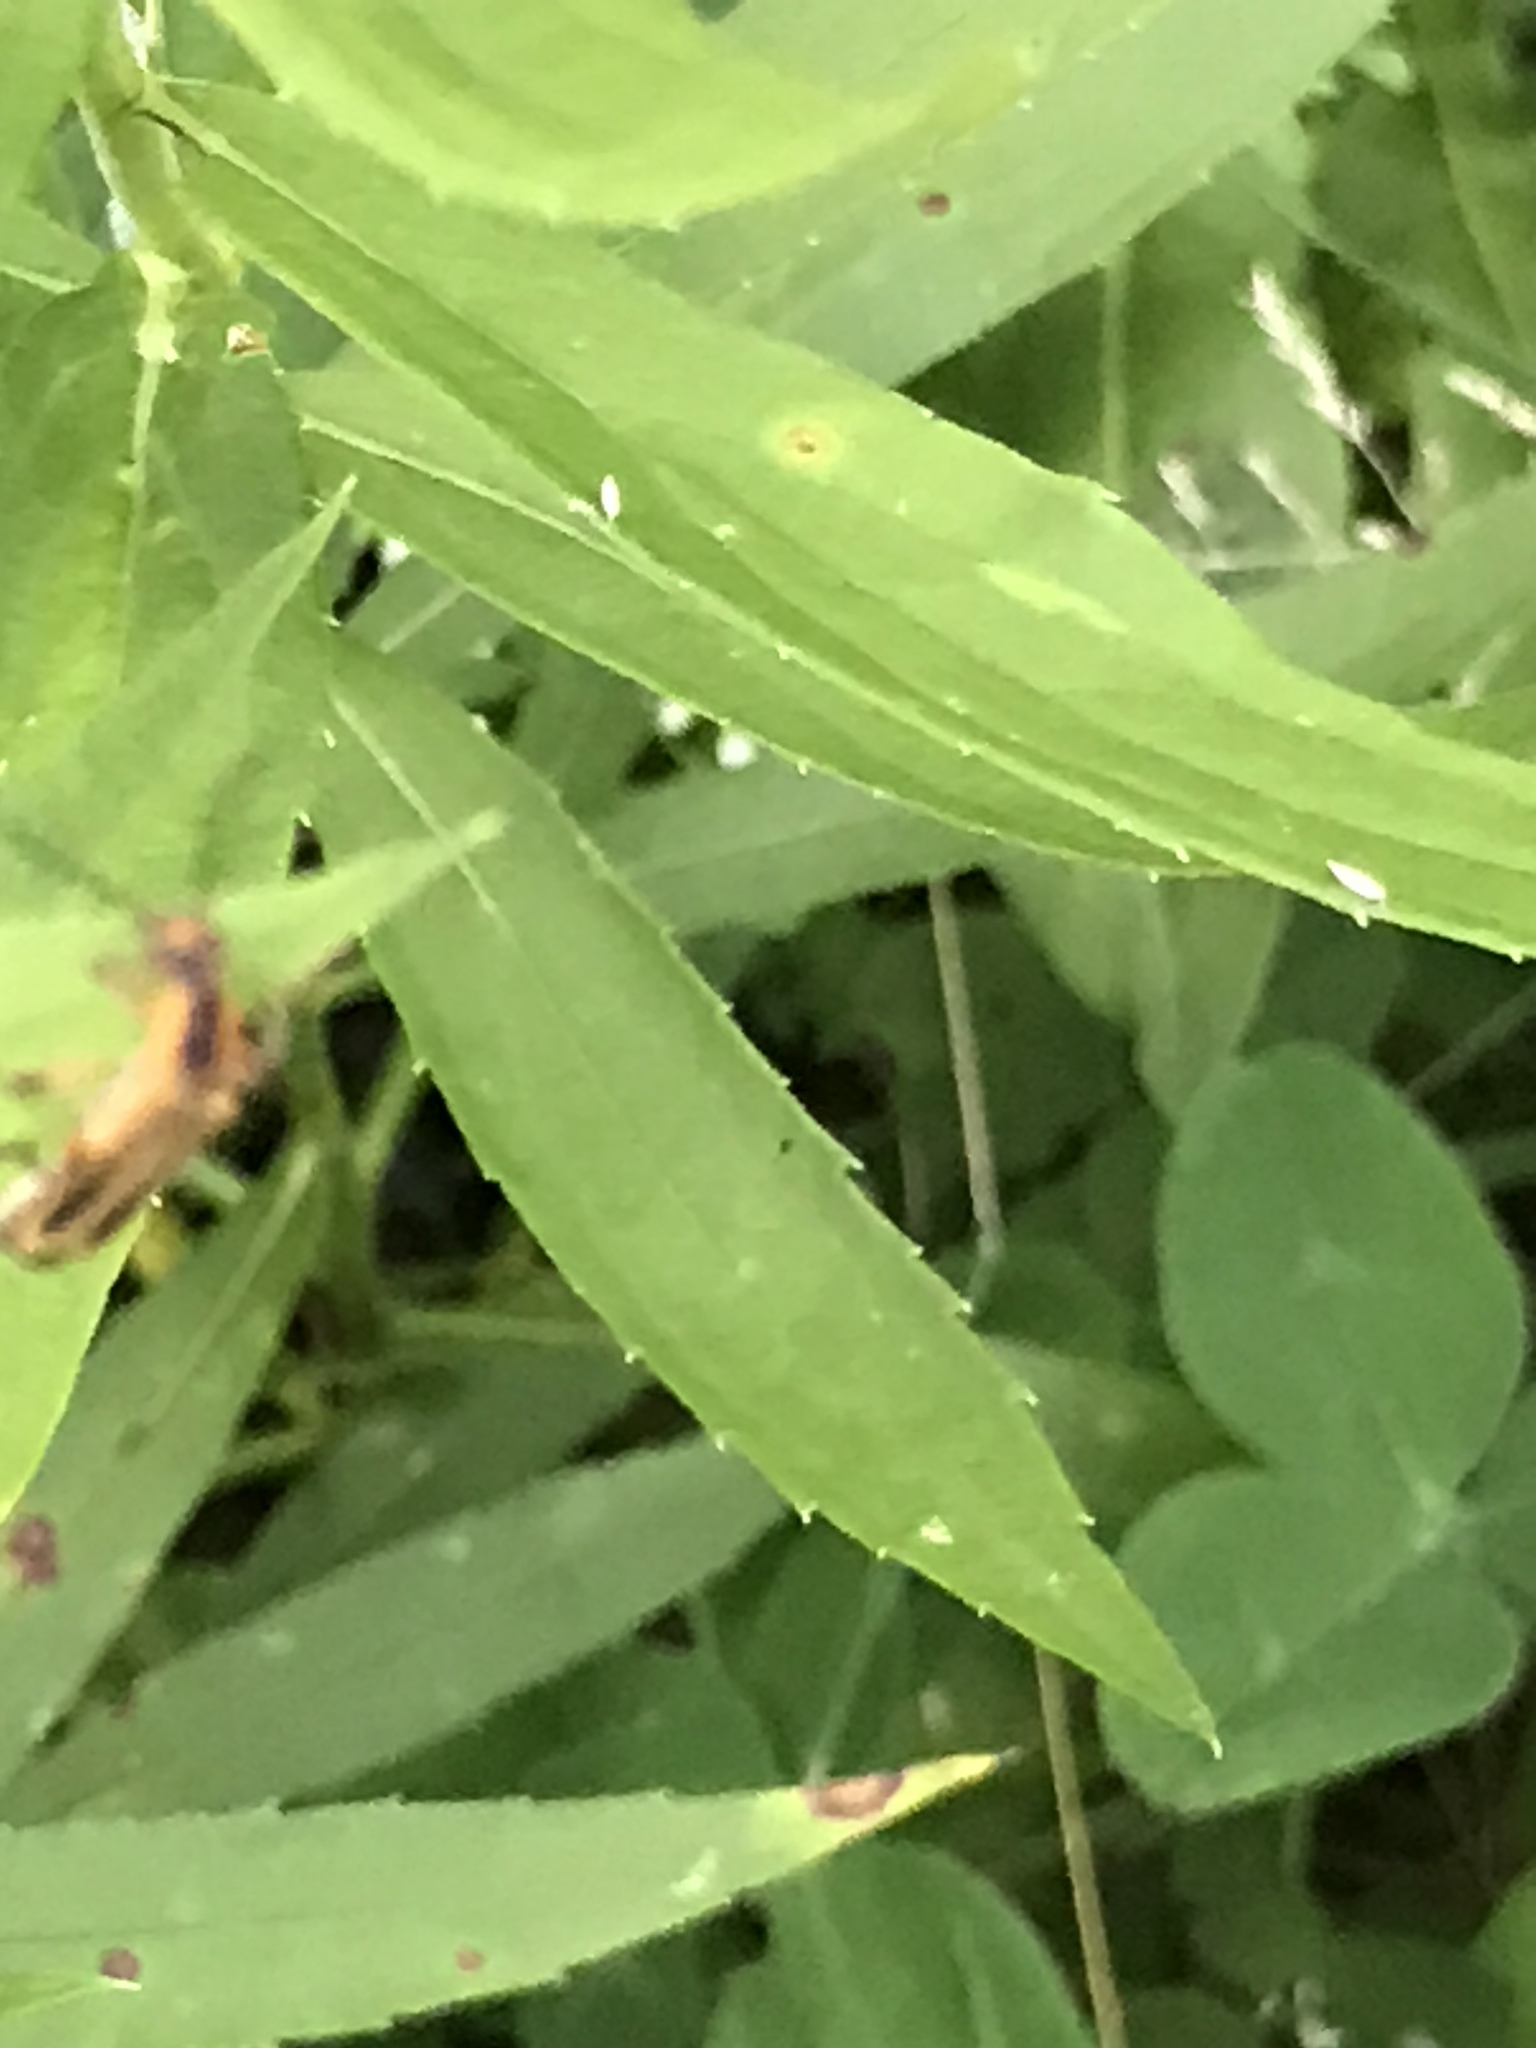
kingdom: Animalia
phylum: Arthropoda
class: Insecta
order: Coleoptera
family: Cantharidae
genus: Chauliognathus
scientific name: Chauliognathus marginatus
